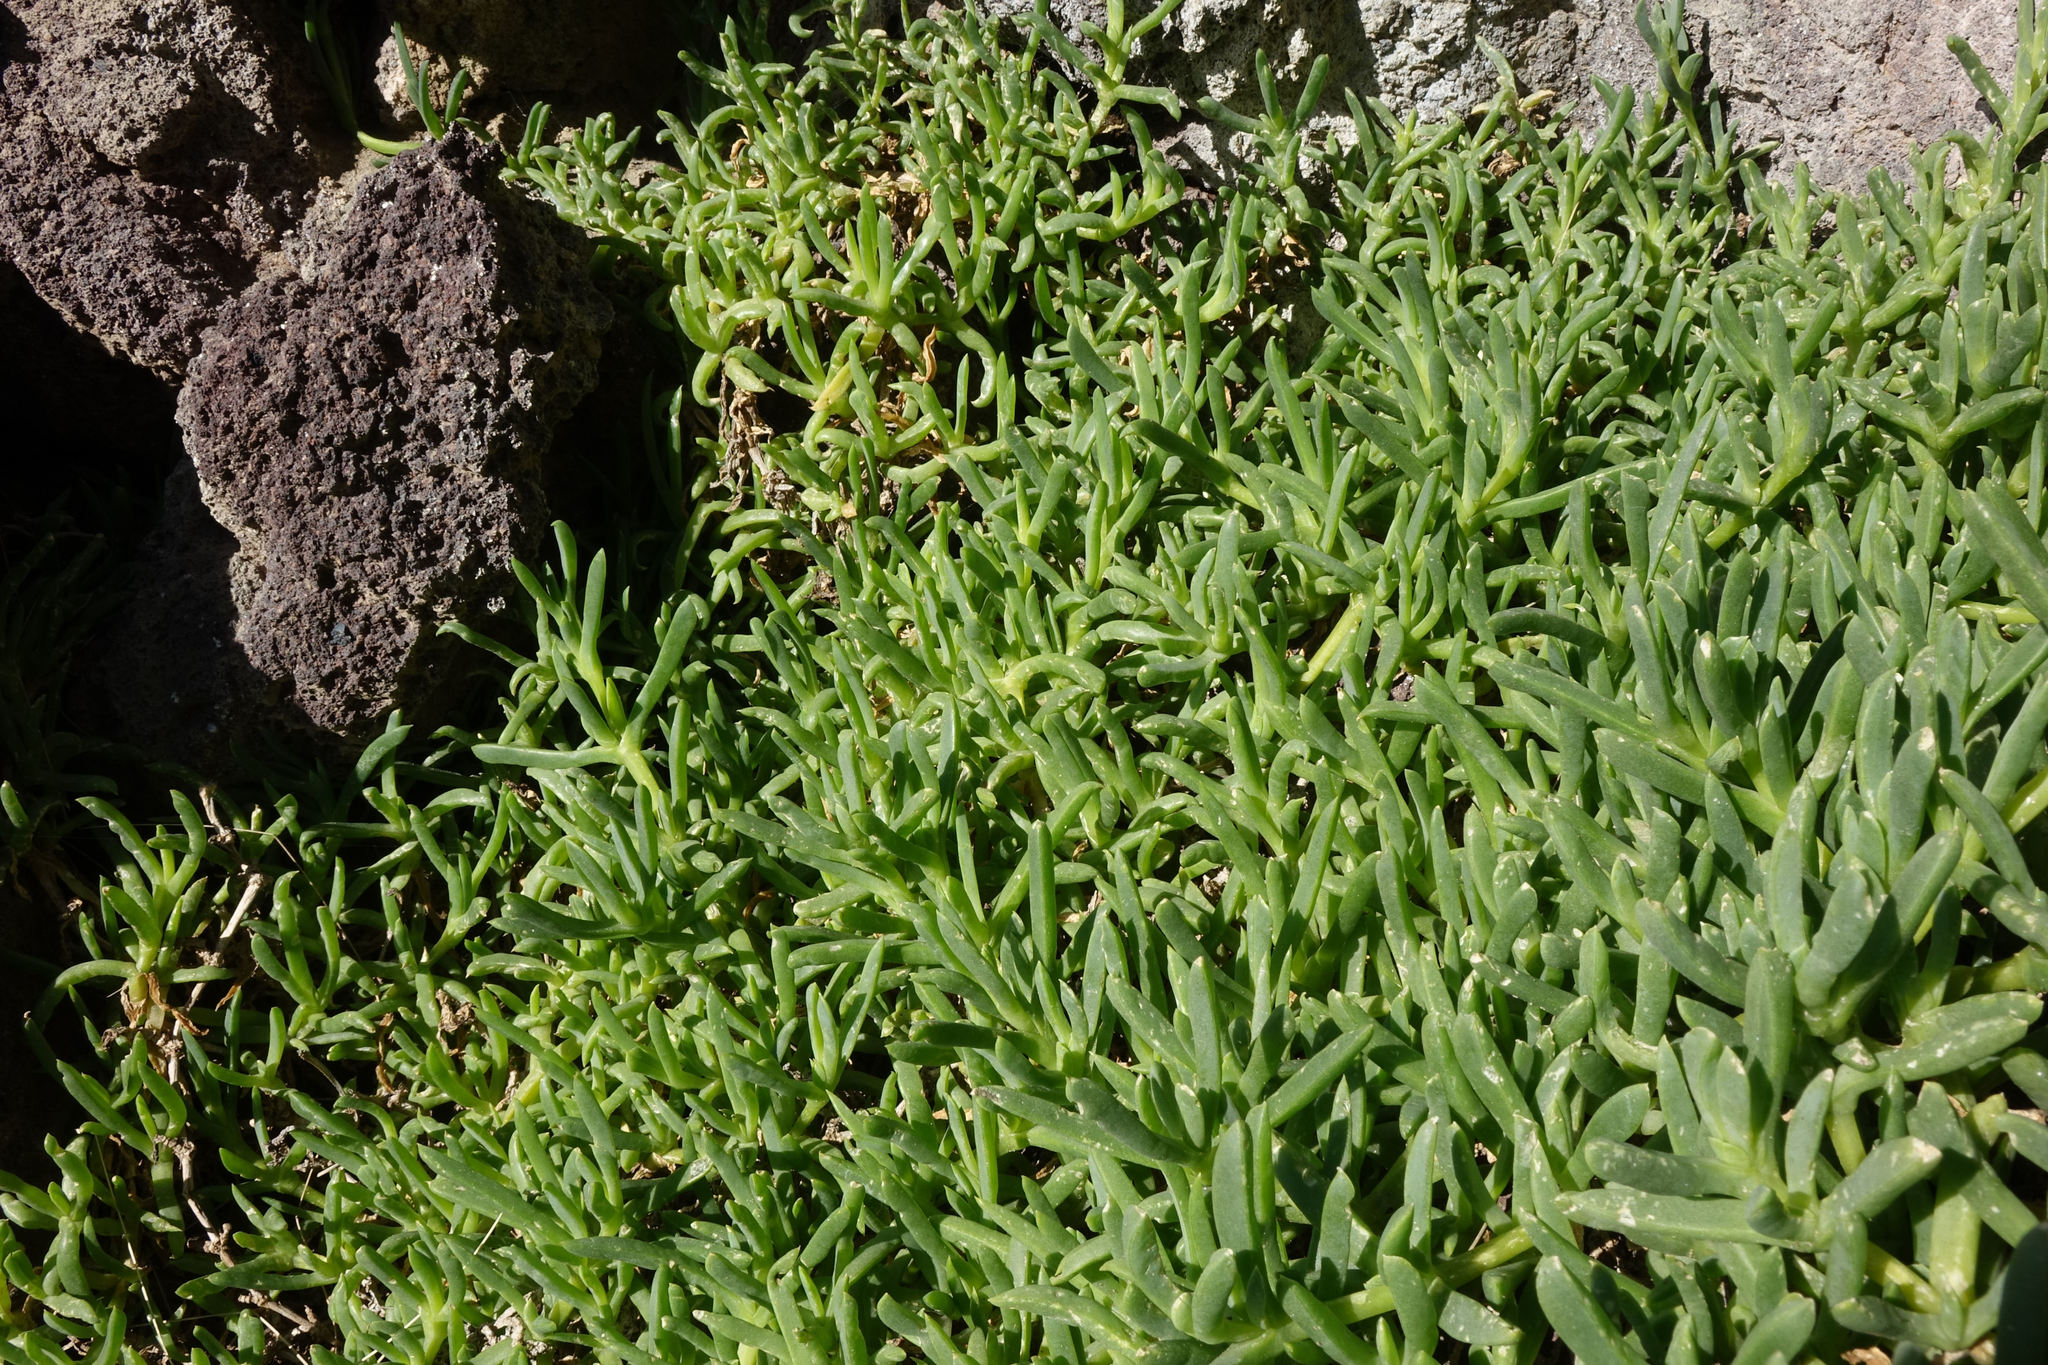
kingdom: Plantae
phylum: Tracheophyta
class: Magnoliopsida
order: Caryophyllales
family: Aizoaceae
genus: Disphyma
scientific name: Disphyma australe
